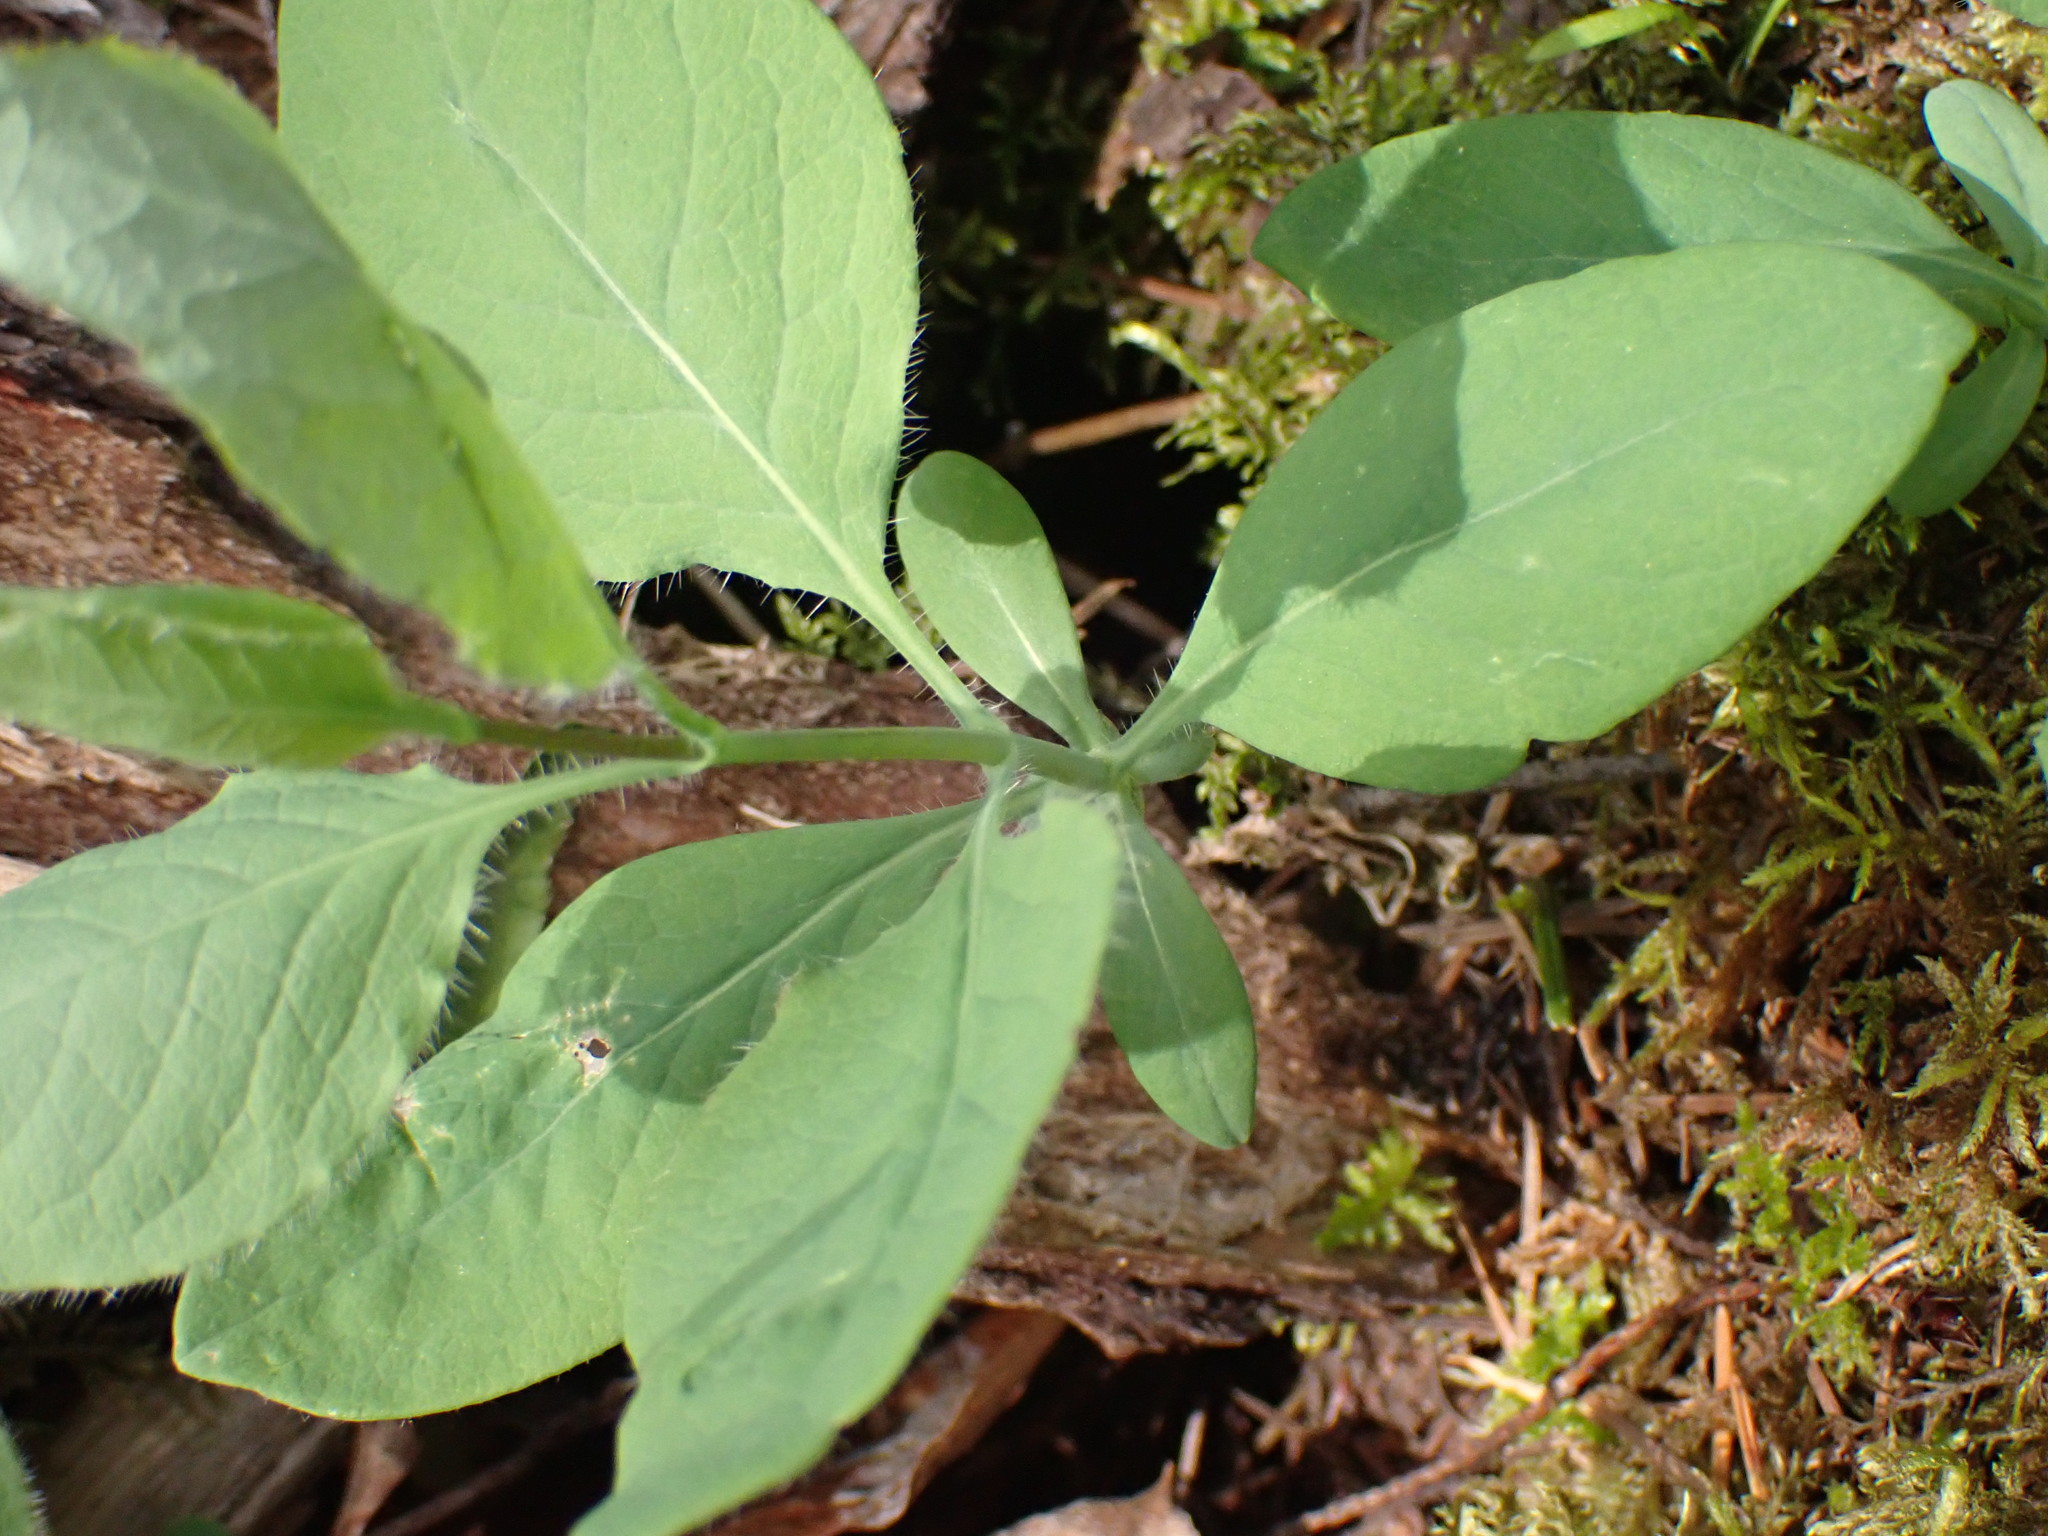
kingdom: Plantae
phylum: Tracheophyta
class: Magnoliopsida
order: Dipsacales
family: Caprifoliaceae
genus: Lonicera
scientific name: Lonicera ciliosa
